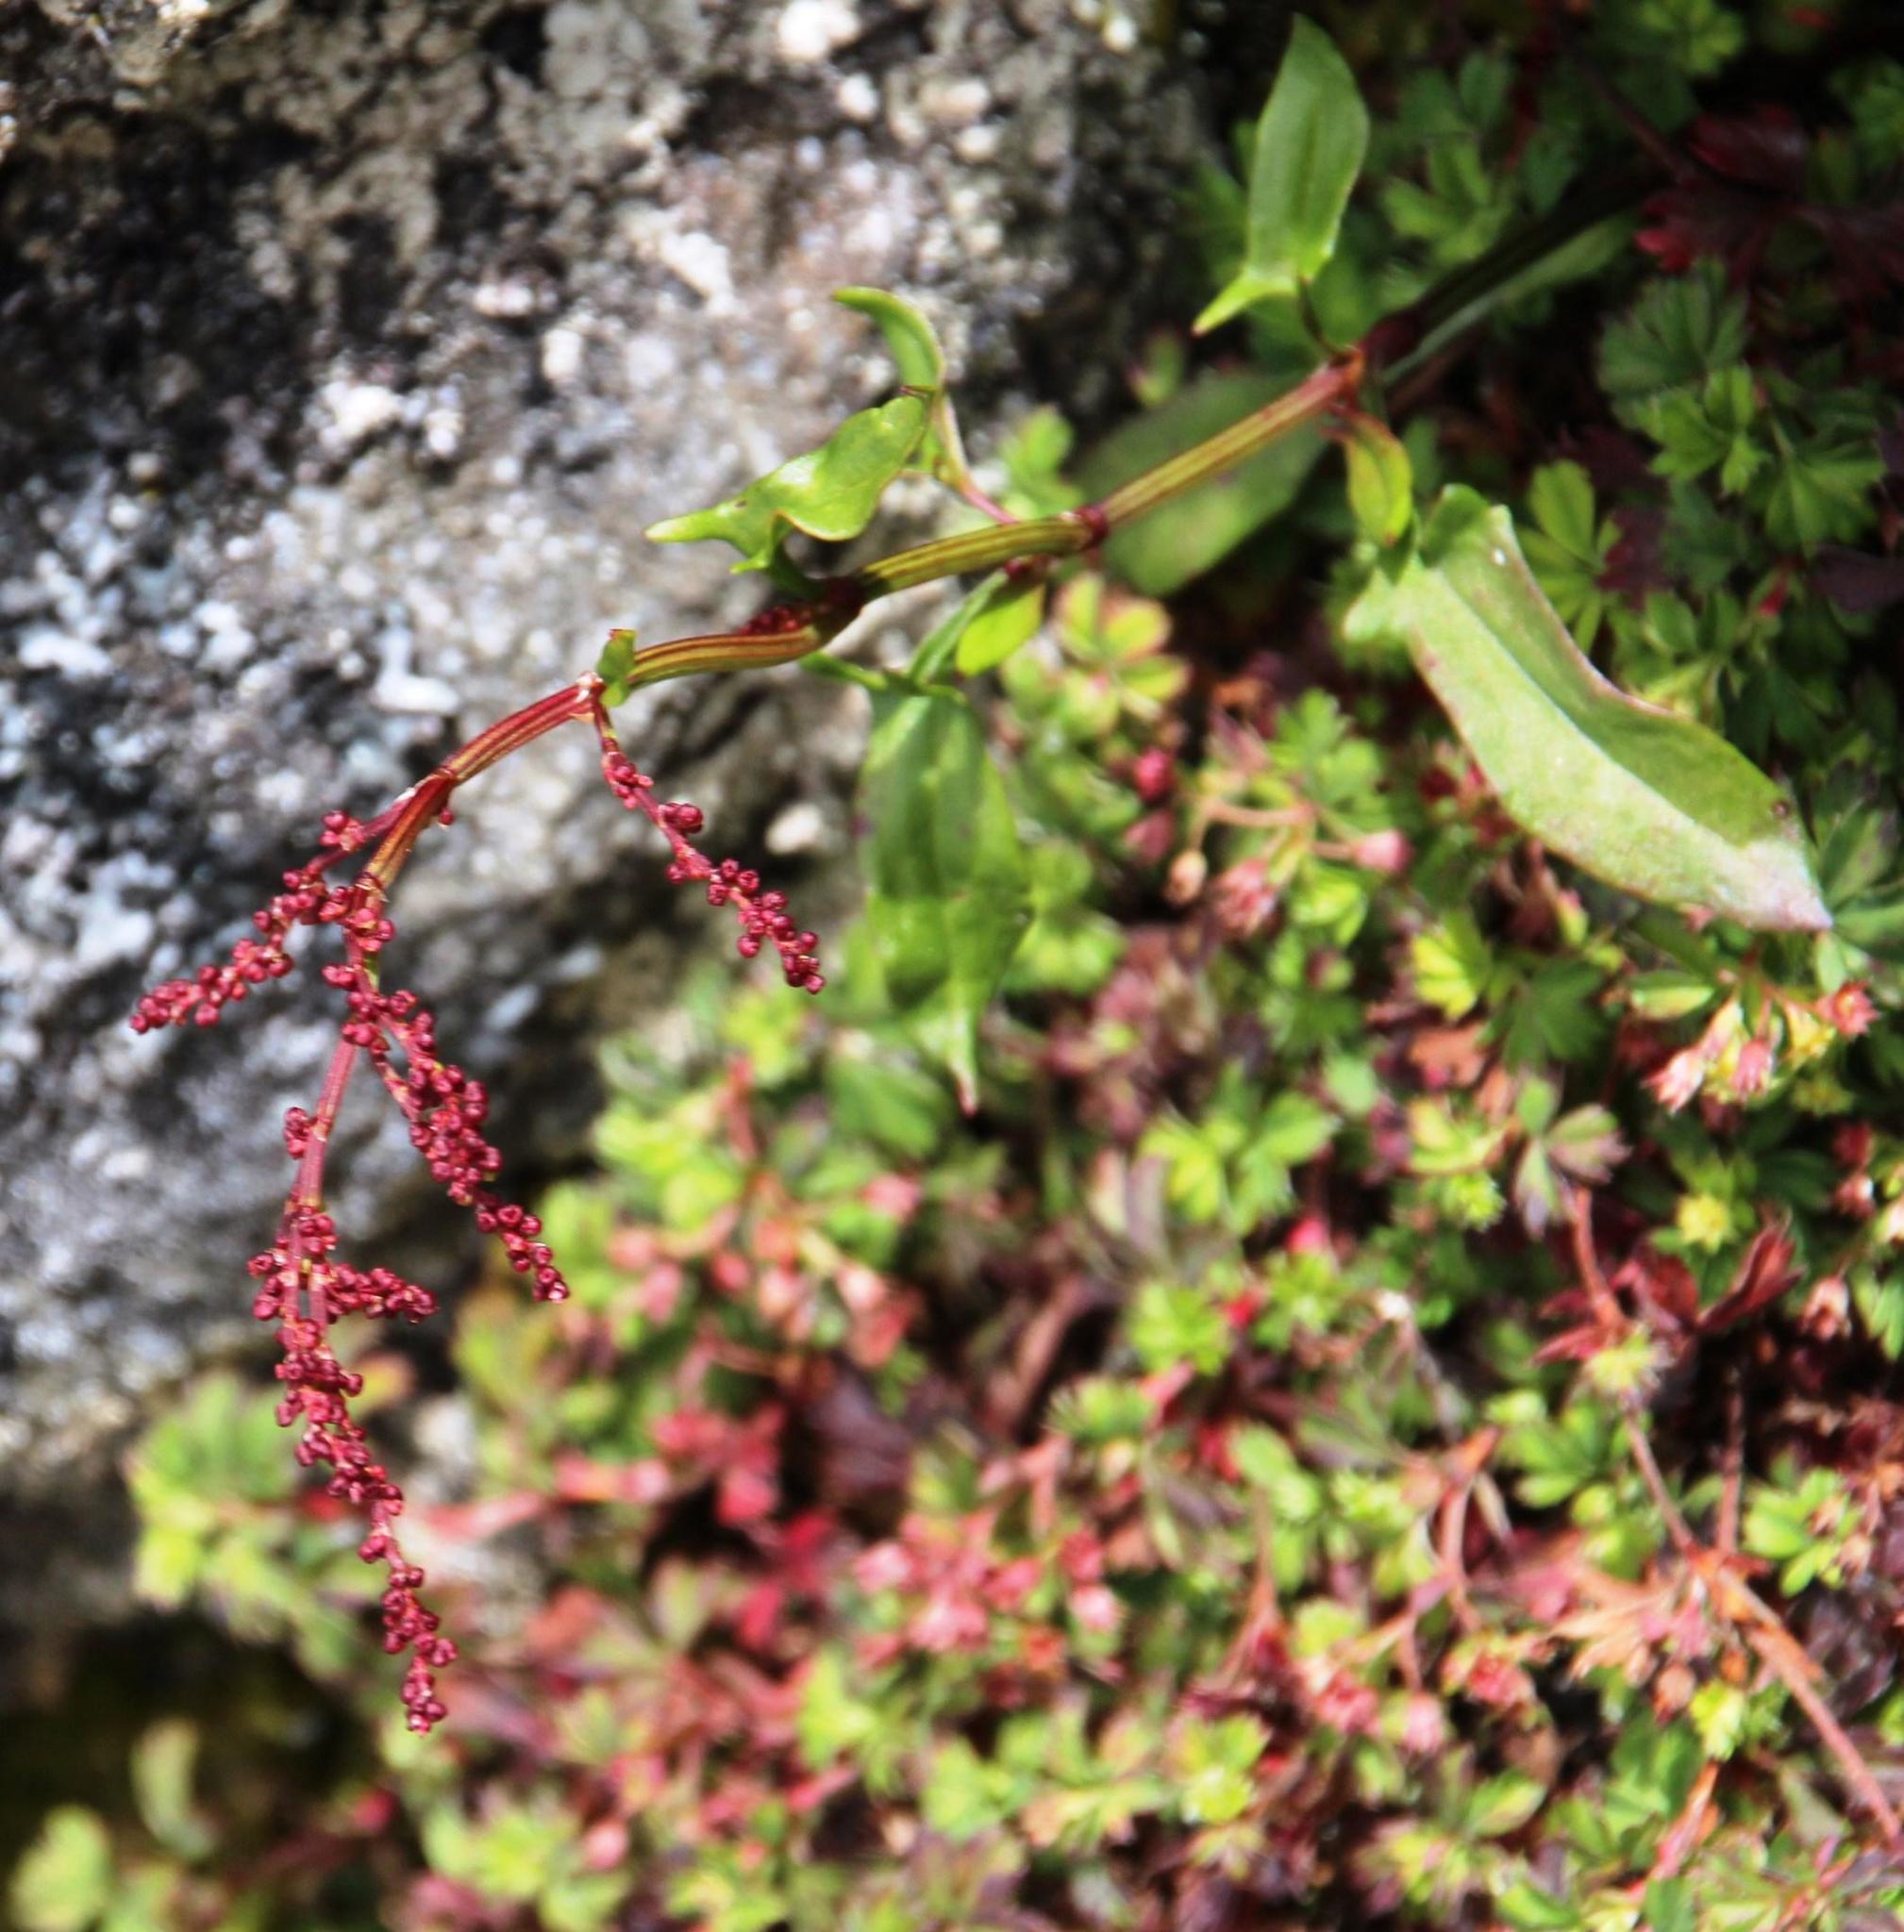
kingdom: Plantae
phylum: Tracheophyta
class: Magnoliopsida
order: Caryophyllales
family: Polygonaceae
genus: Rumex
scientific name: Rumex acetosella
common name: Common sheep sorrel
